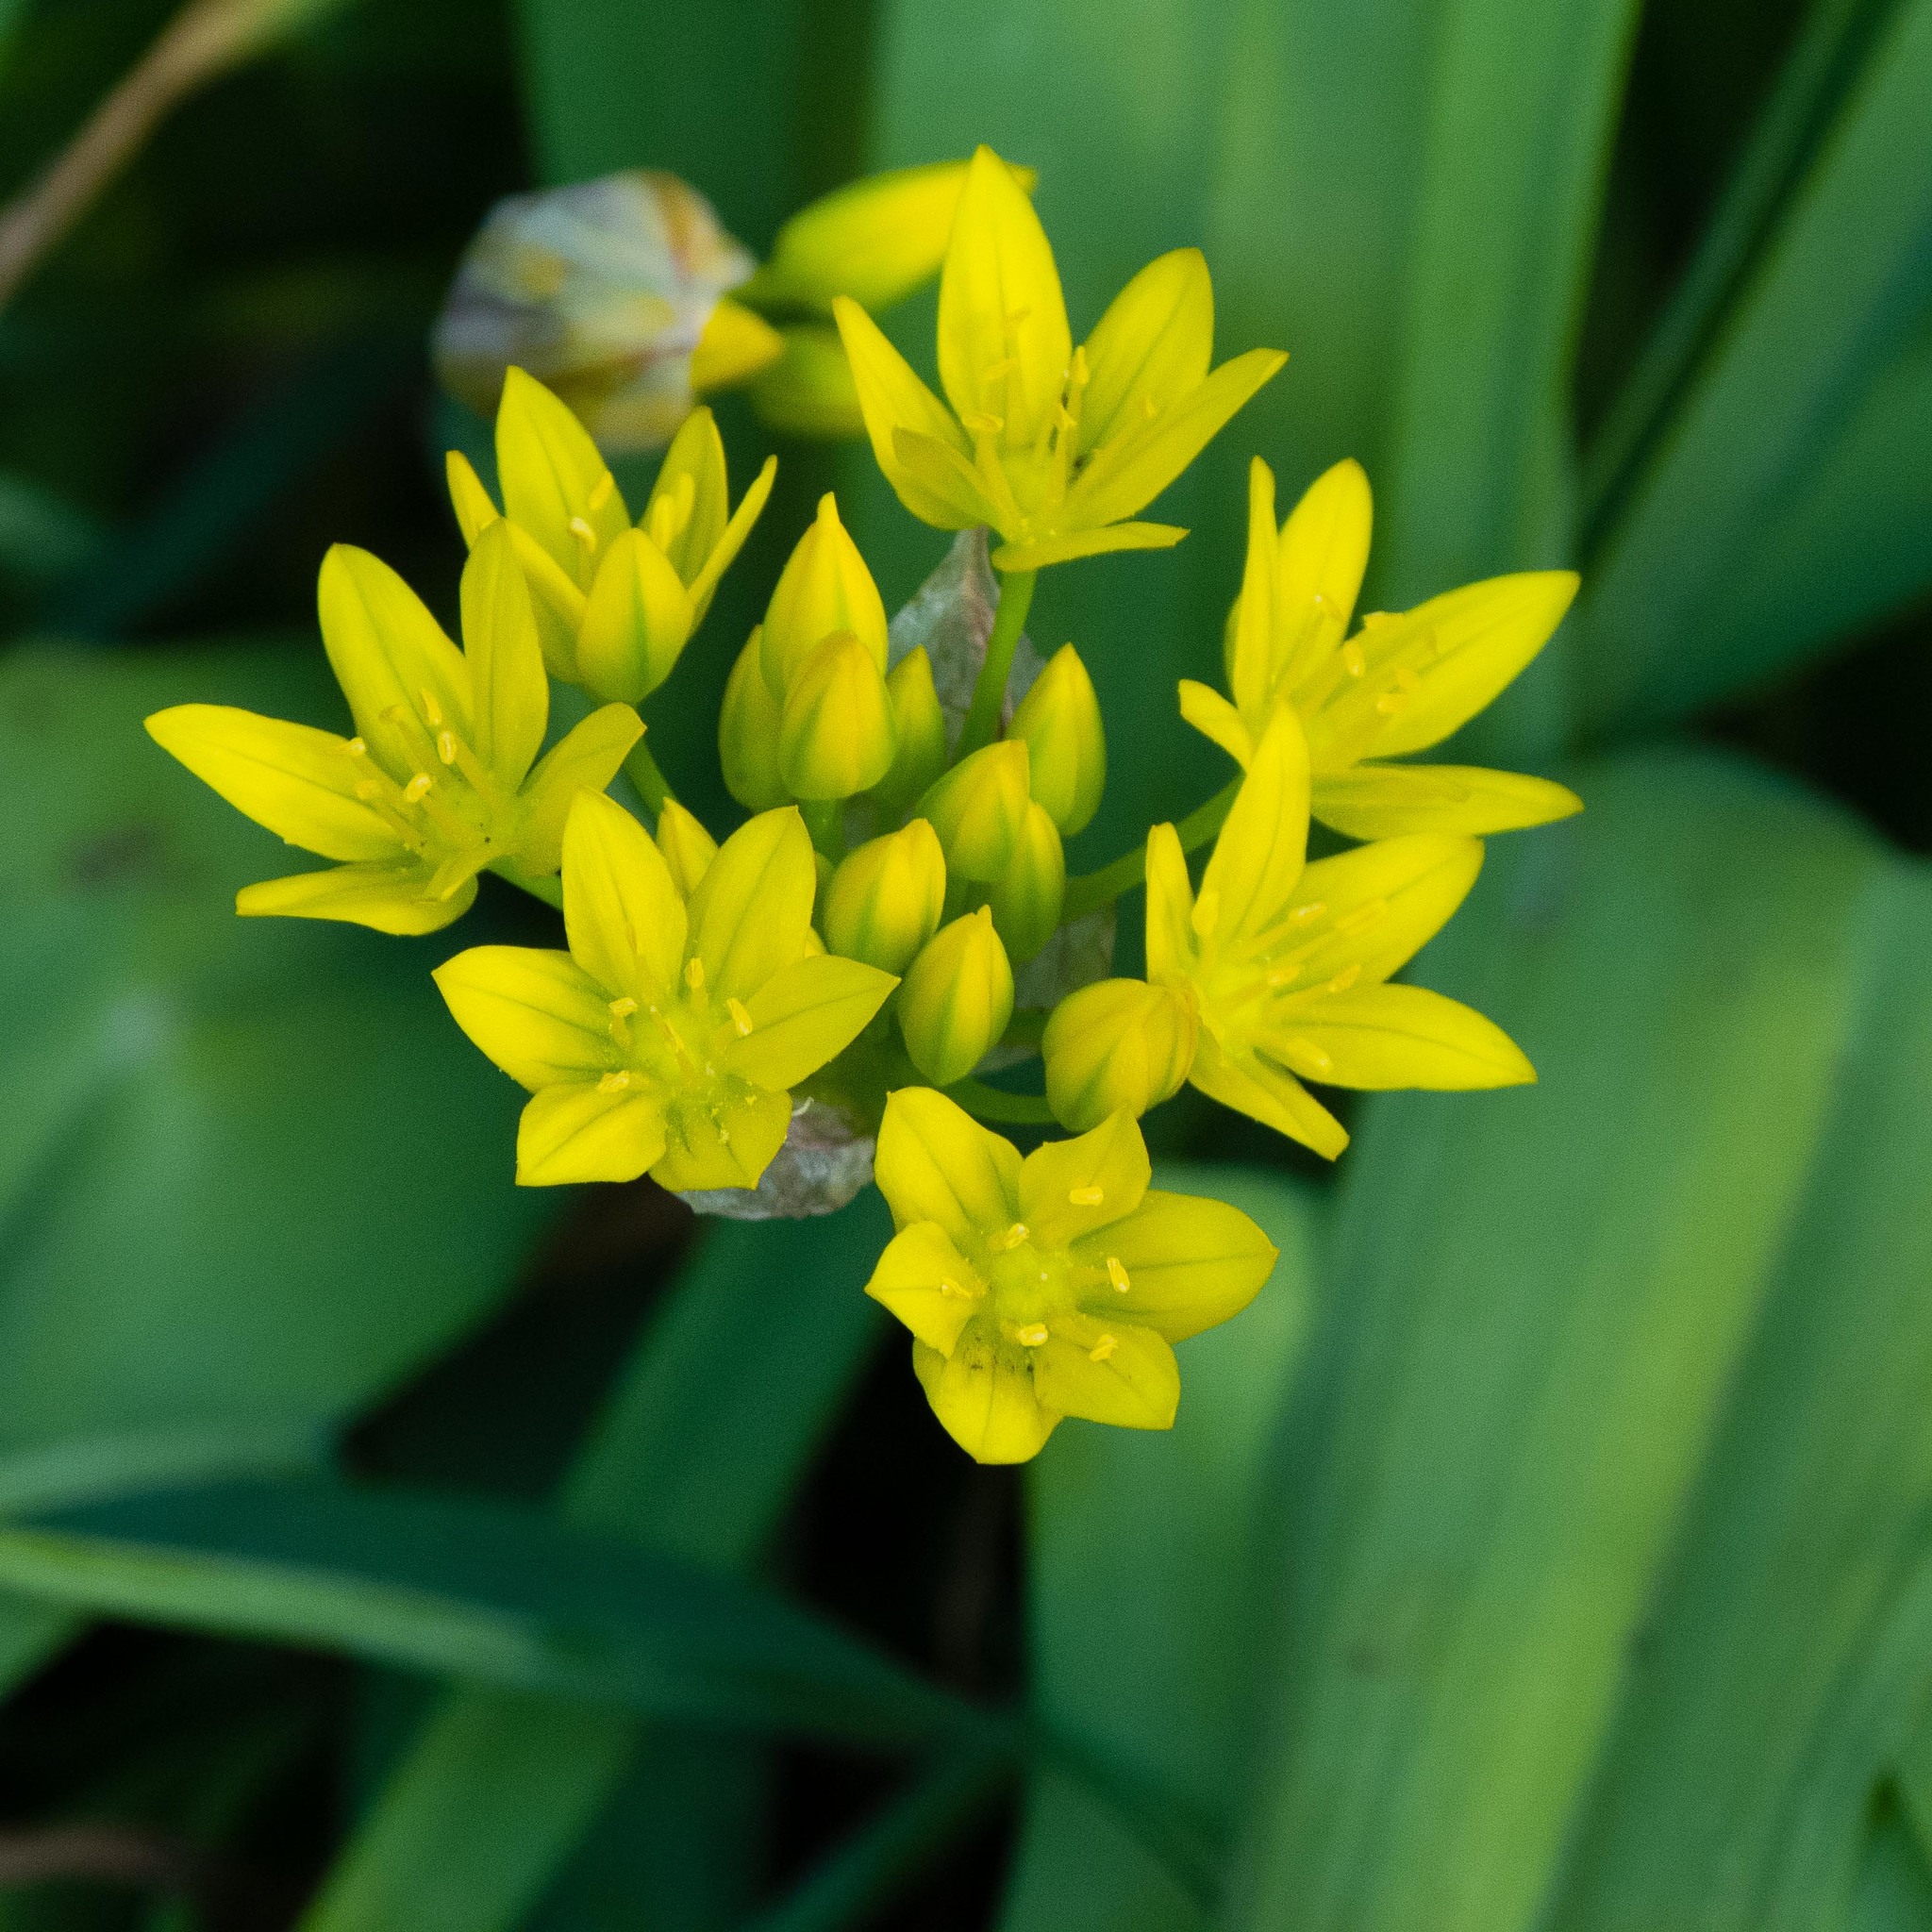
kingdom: Plantae
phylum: Tracheophyta
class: Liliopsida
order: Asparagales
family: Amaryllidaceae
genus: Allium
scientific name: Allium moly
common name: Yellow garlic
